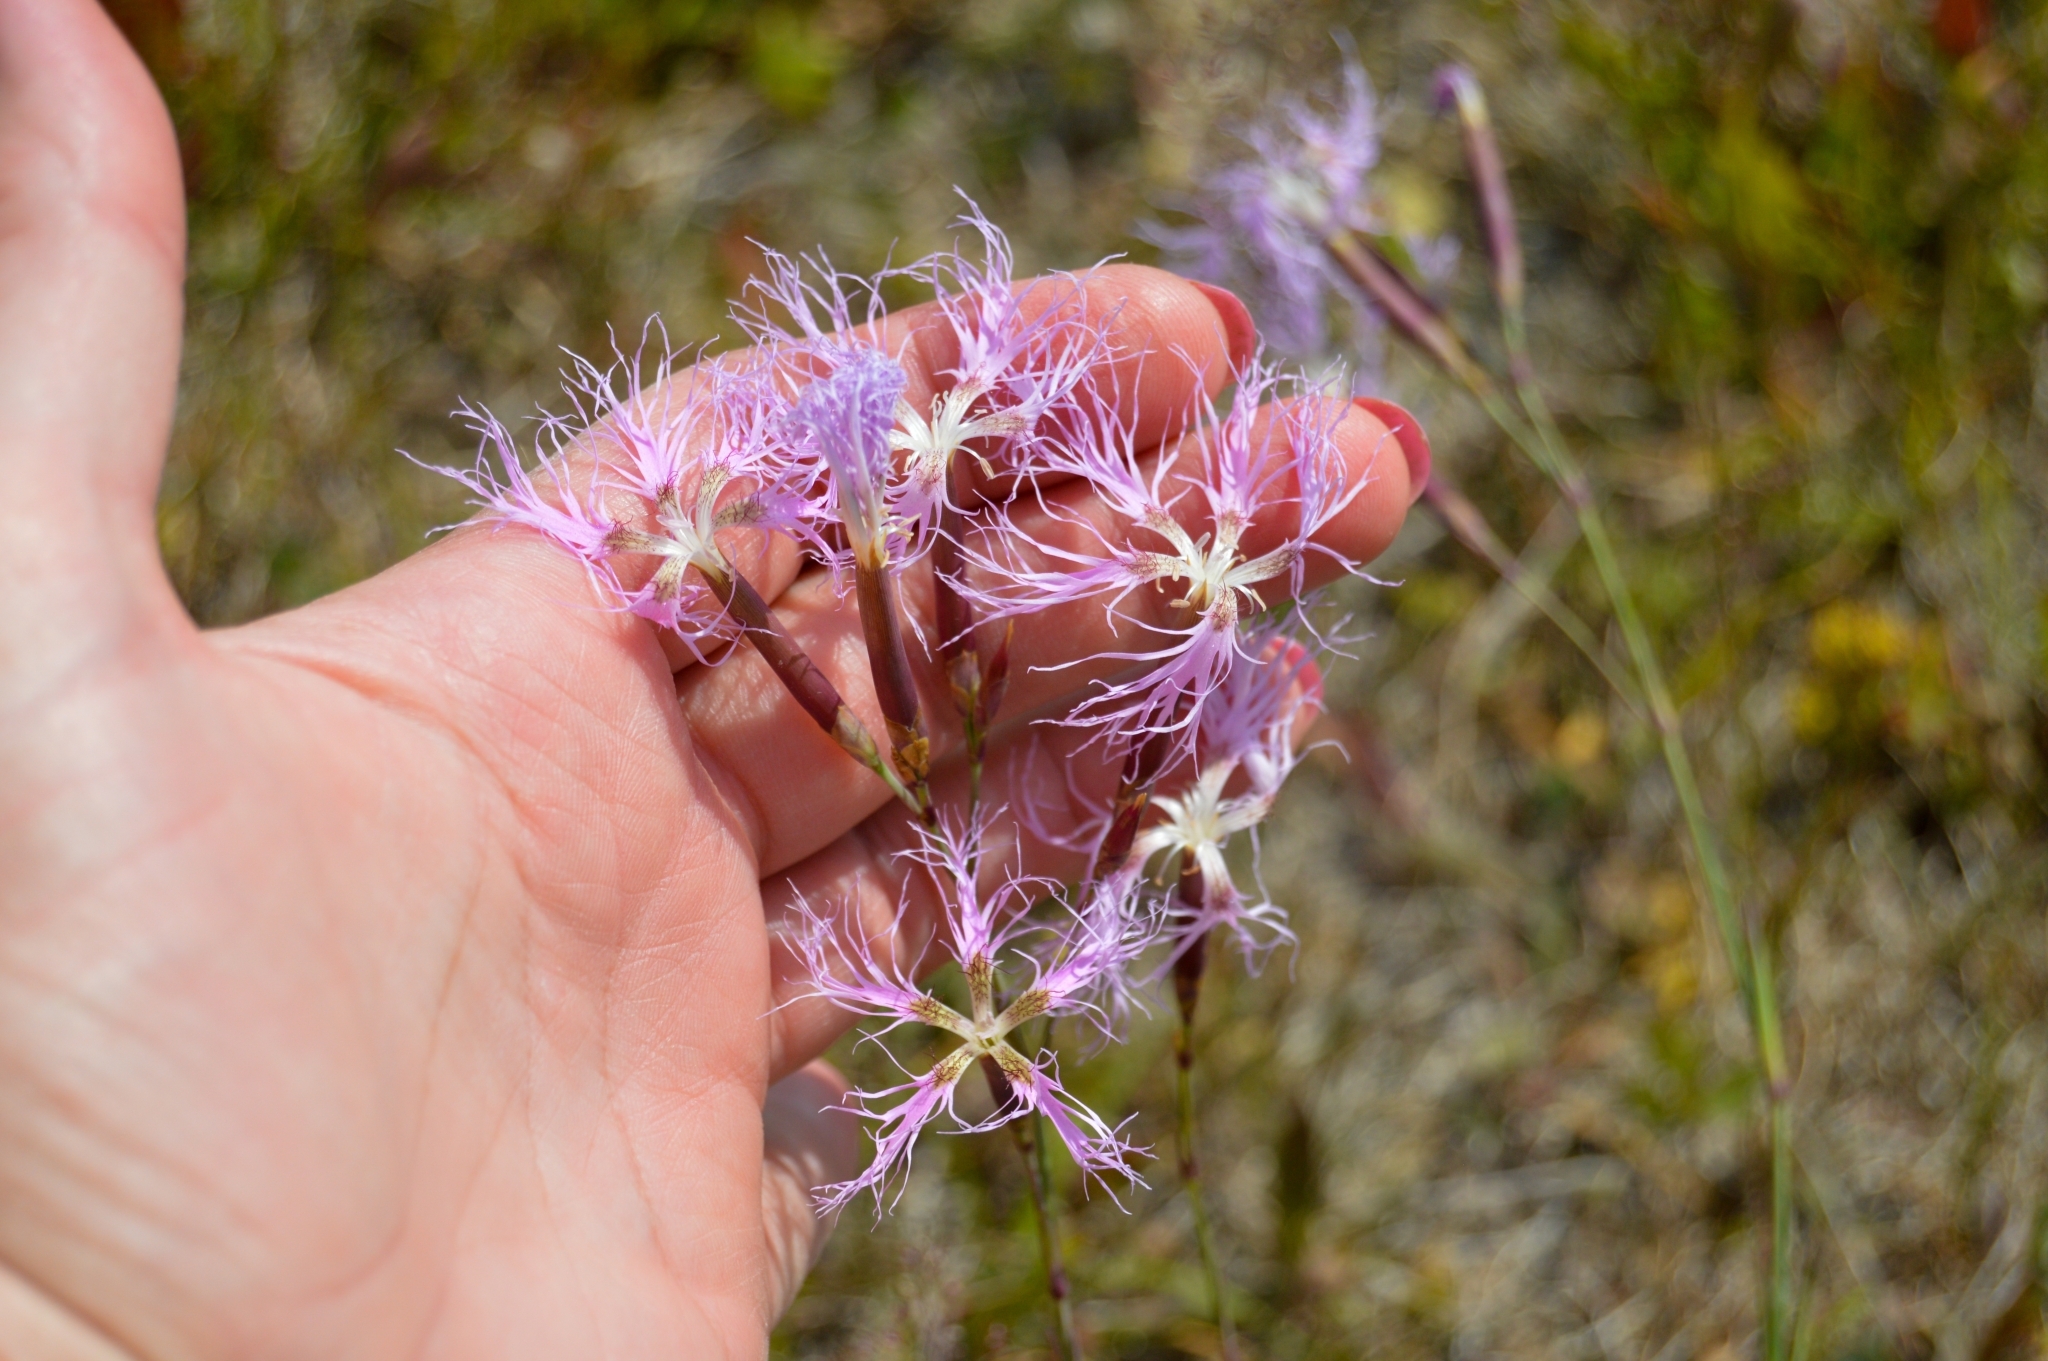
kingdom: Plantae
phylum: Tracheophyta
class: Magnoliopsida
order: Caryophyllales
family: Caryophyllaceae
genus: Dianthus
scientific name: Dianthus superbus
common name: Fringed pink
